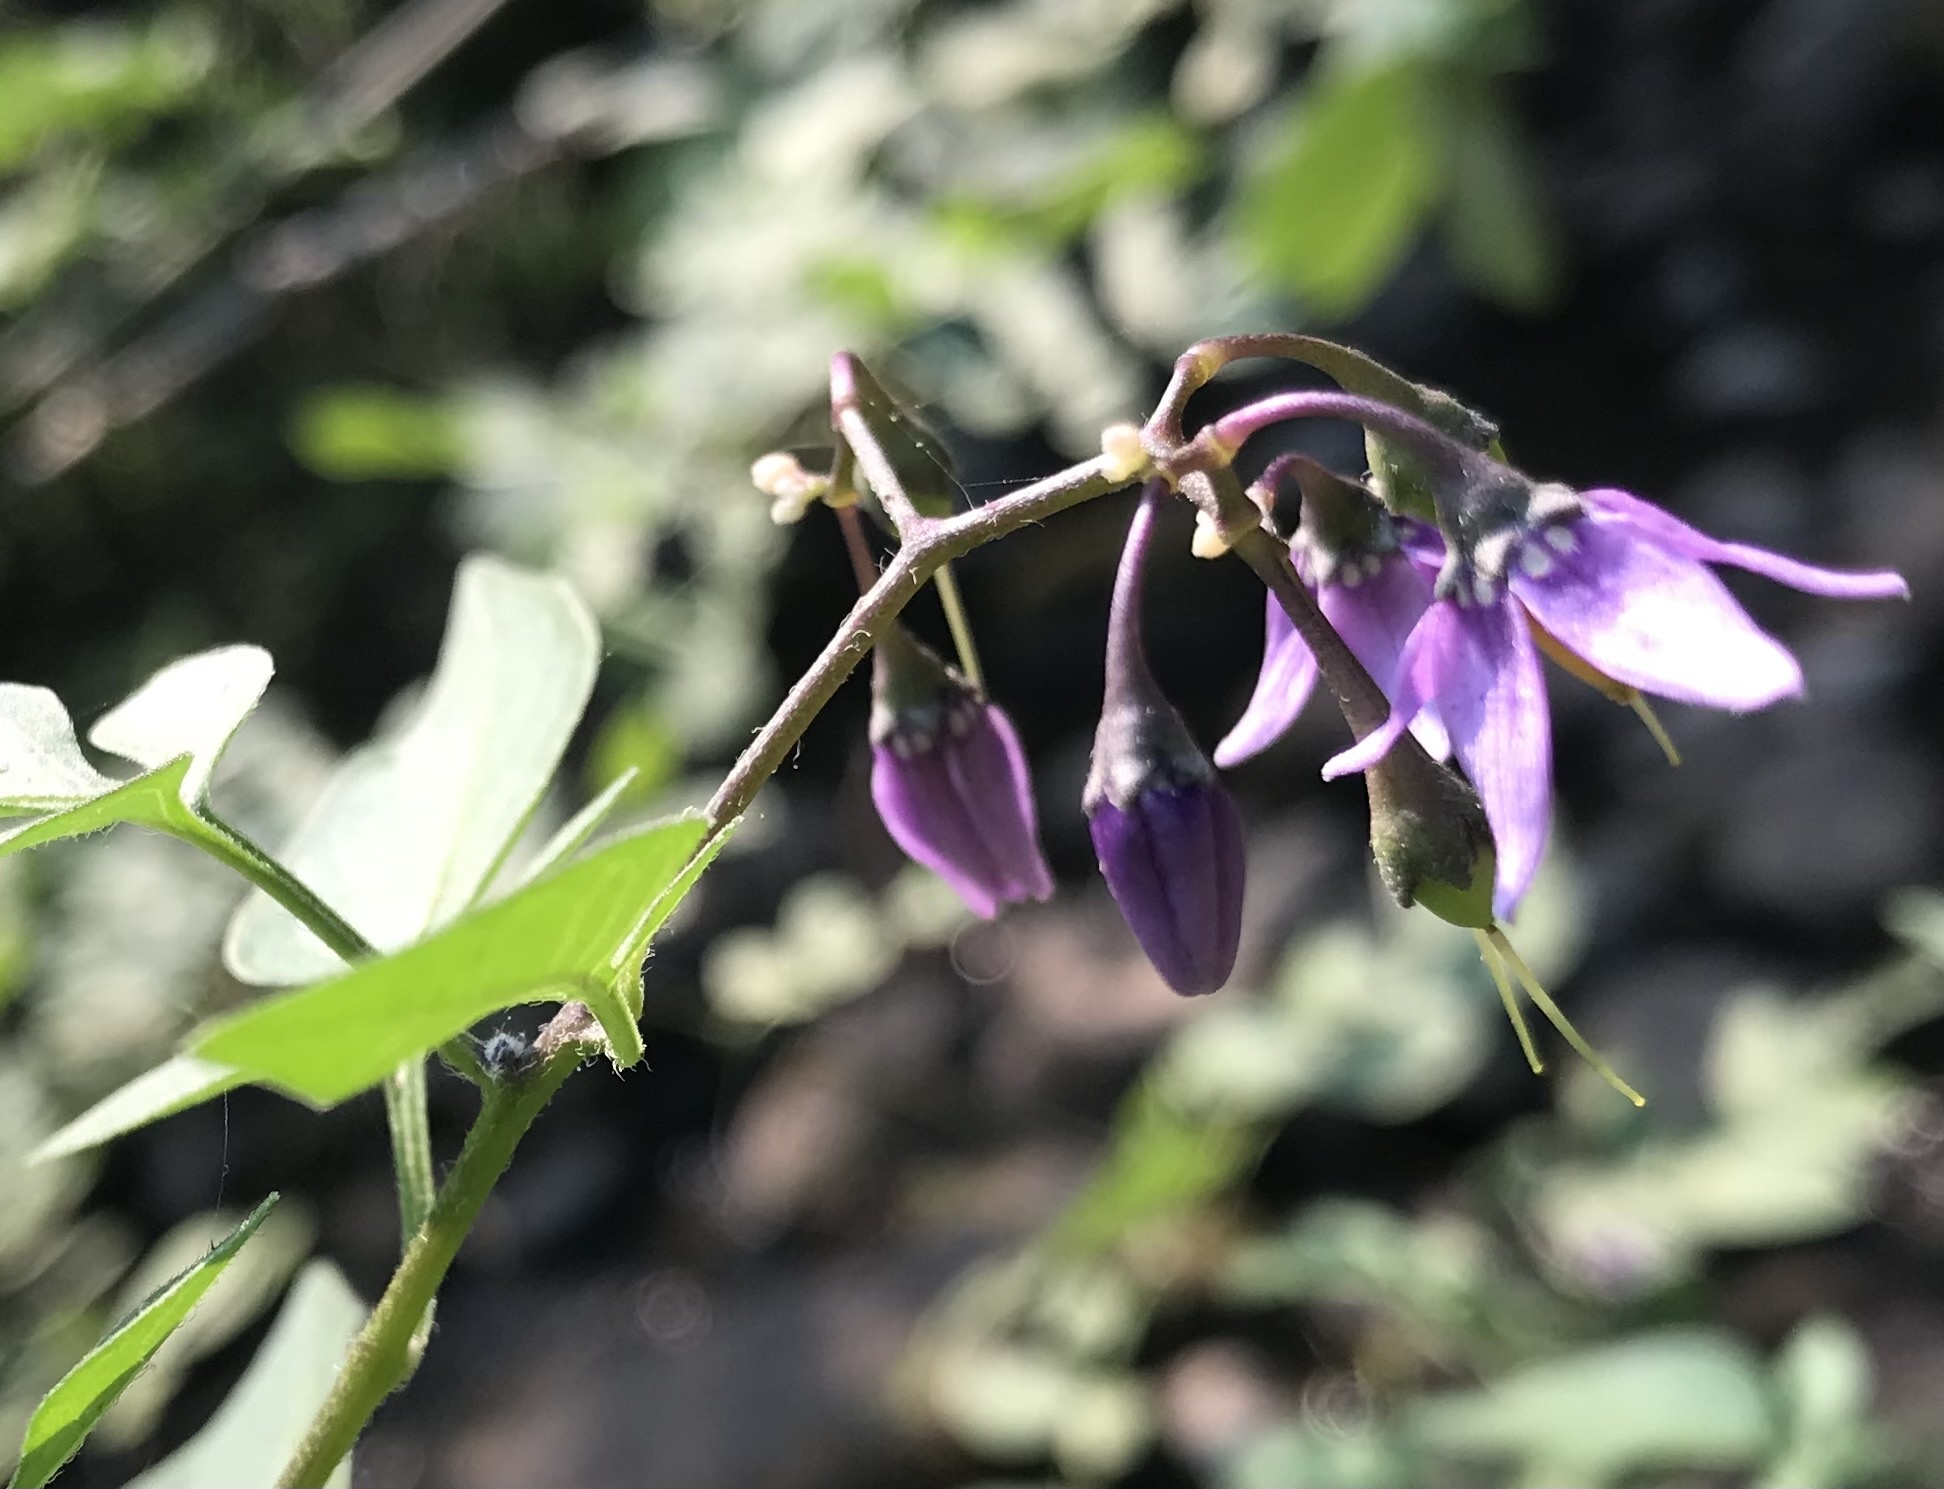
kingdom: Plantae
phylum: Tracheophyta
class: Magnoliopsida
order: Solanales
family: Solanaceae
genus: Solanum
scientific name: Solanum dulcamara
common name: Climbing nightshade
